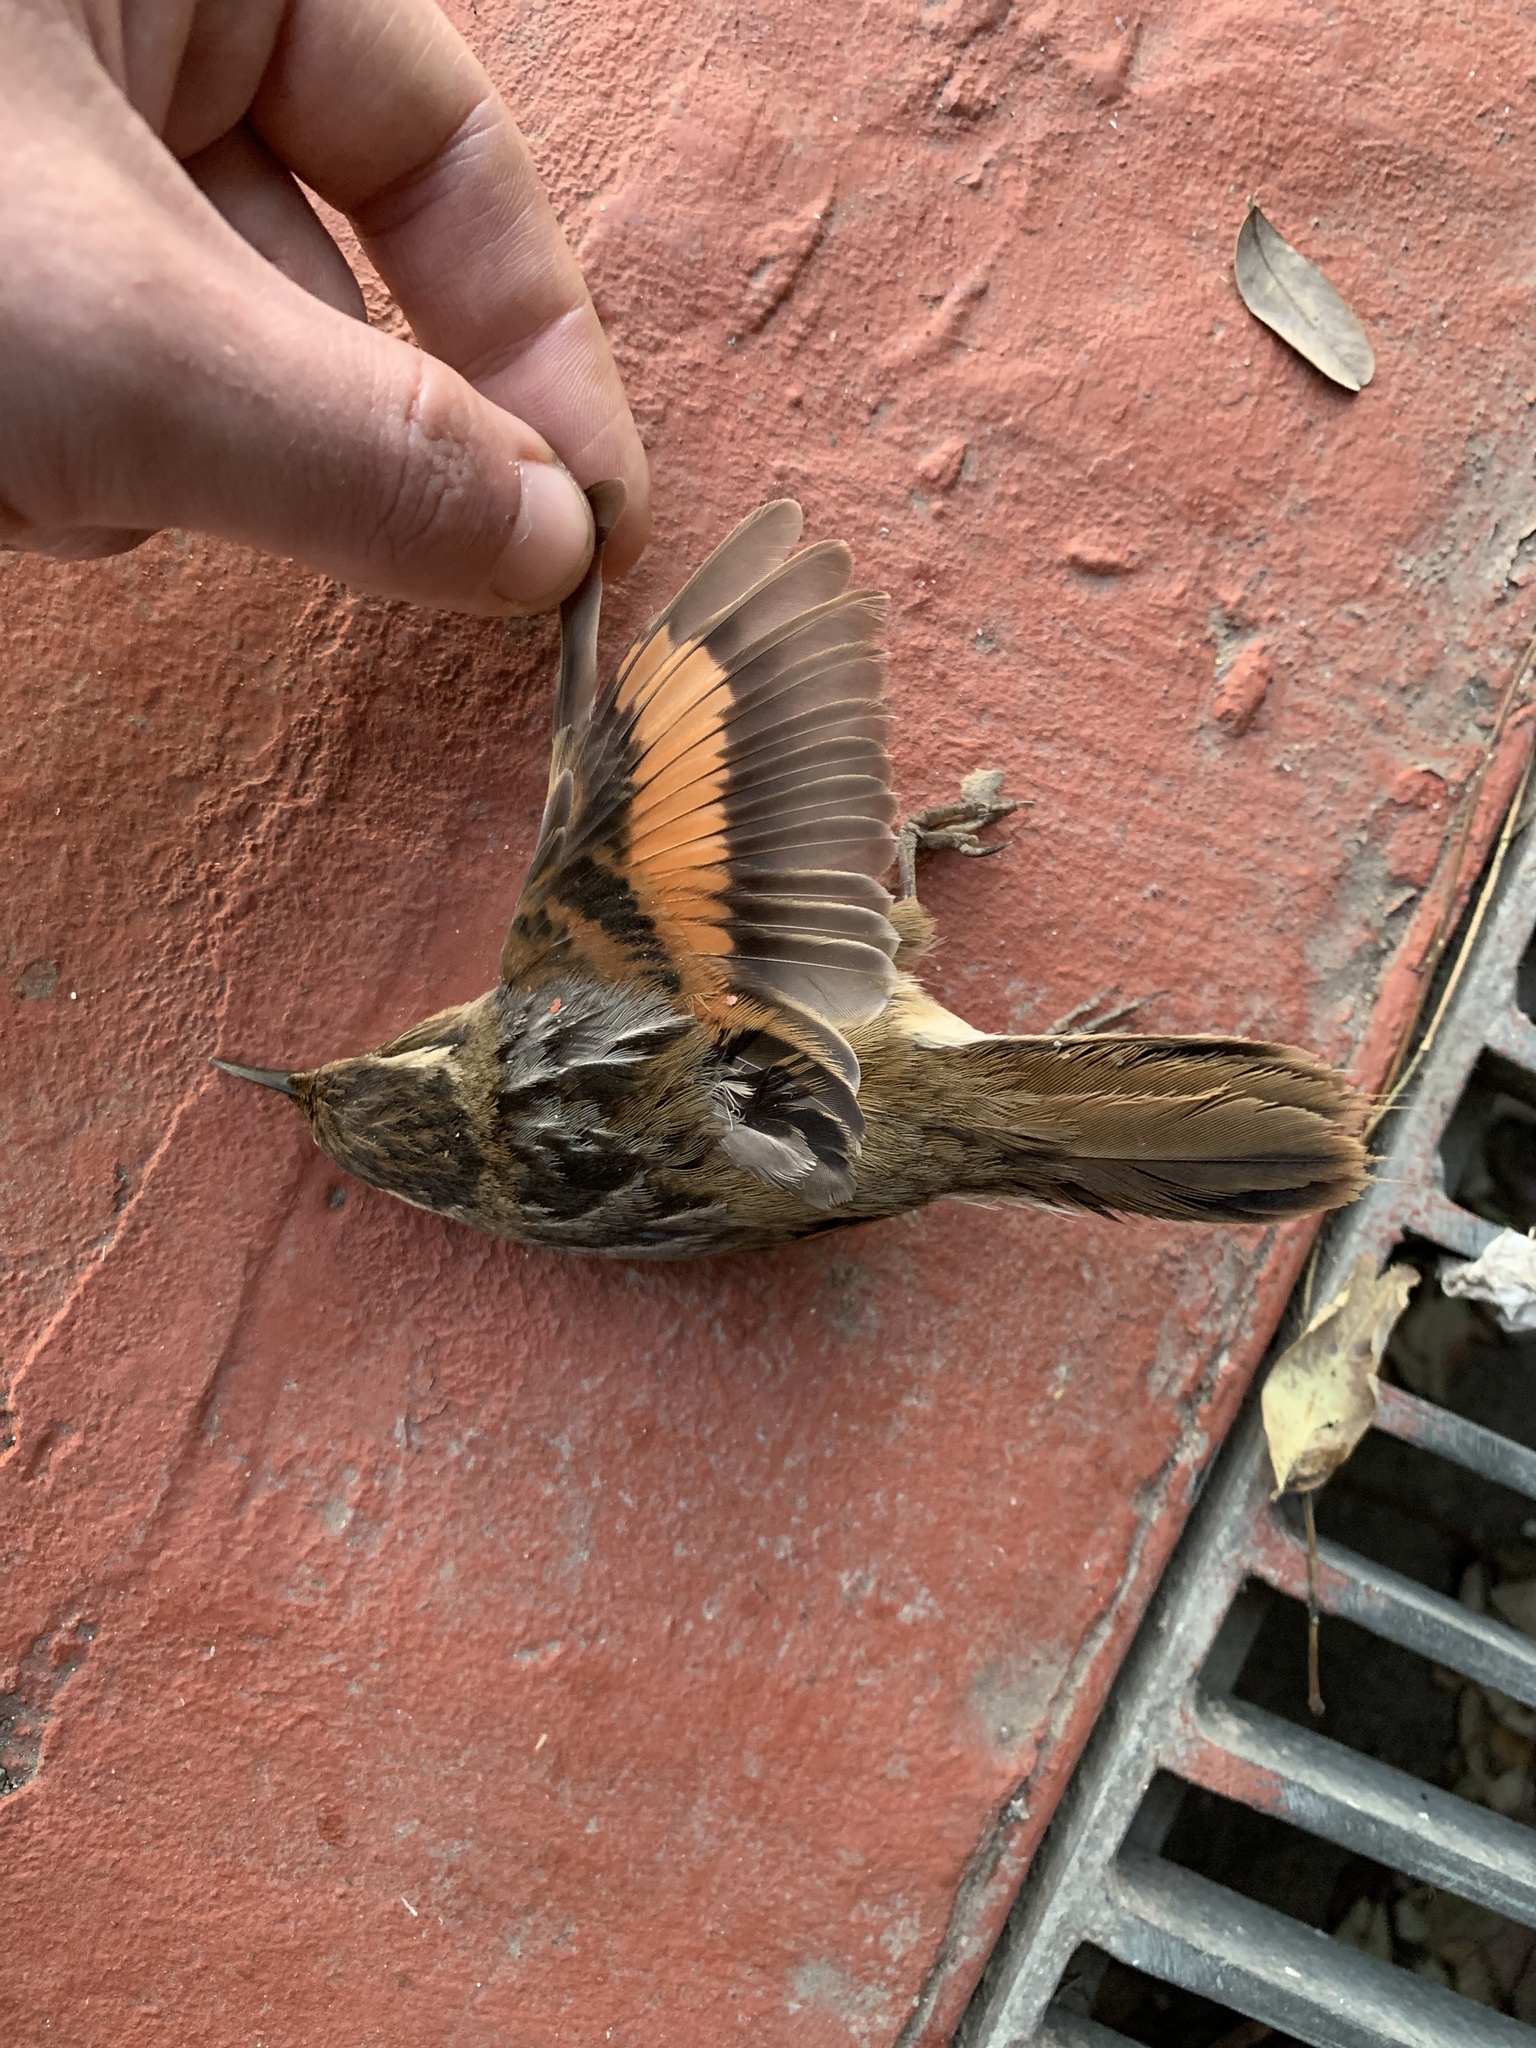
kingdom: Animalia
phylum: Chordata
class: Aves
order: Passeriformes
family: Furnariidae
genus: Phleocryptes
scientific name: Phleocryptes melanops
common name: Wren-like rushbird
